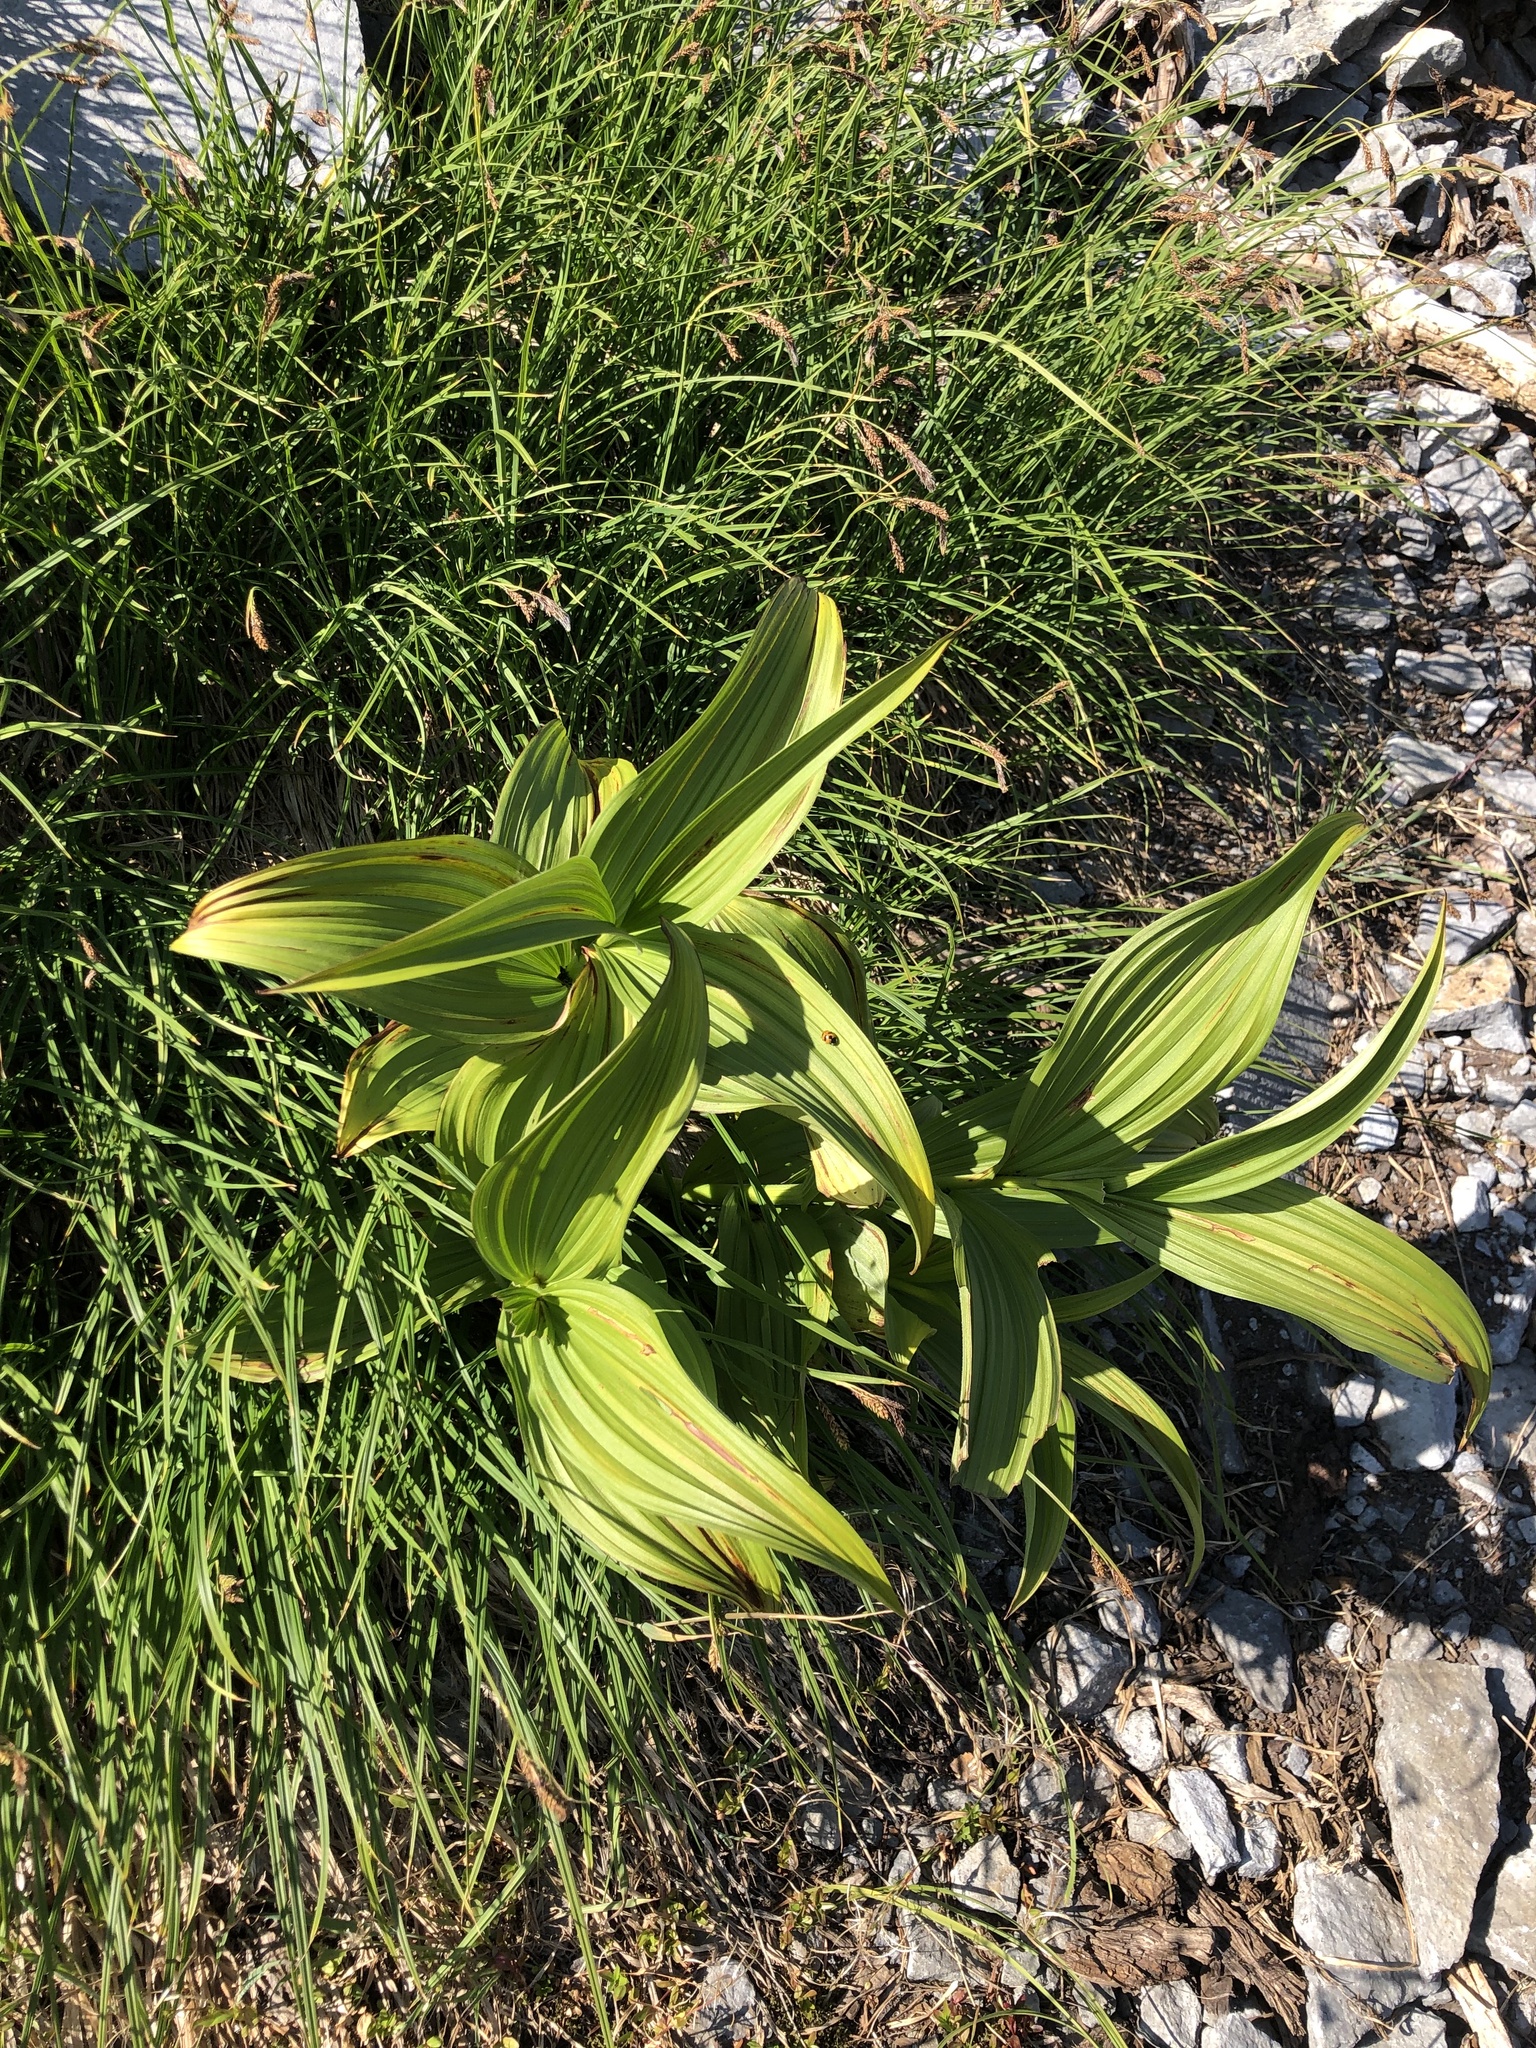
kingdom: Plantae
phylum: Tracheophyta
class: Liliopsida
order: Liliales
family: Melanthiaceae
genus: Veratrum
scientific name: Veratrum viride
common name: American false hellebore
